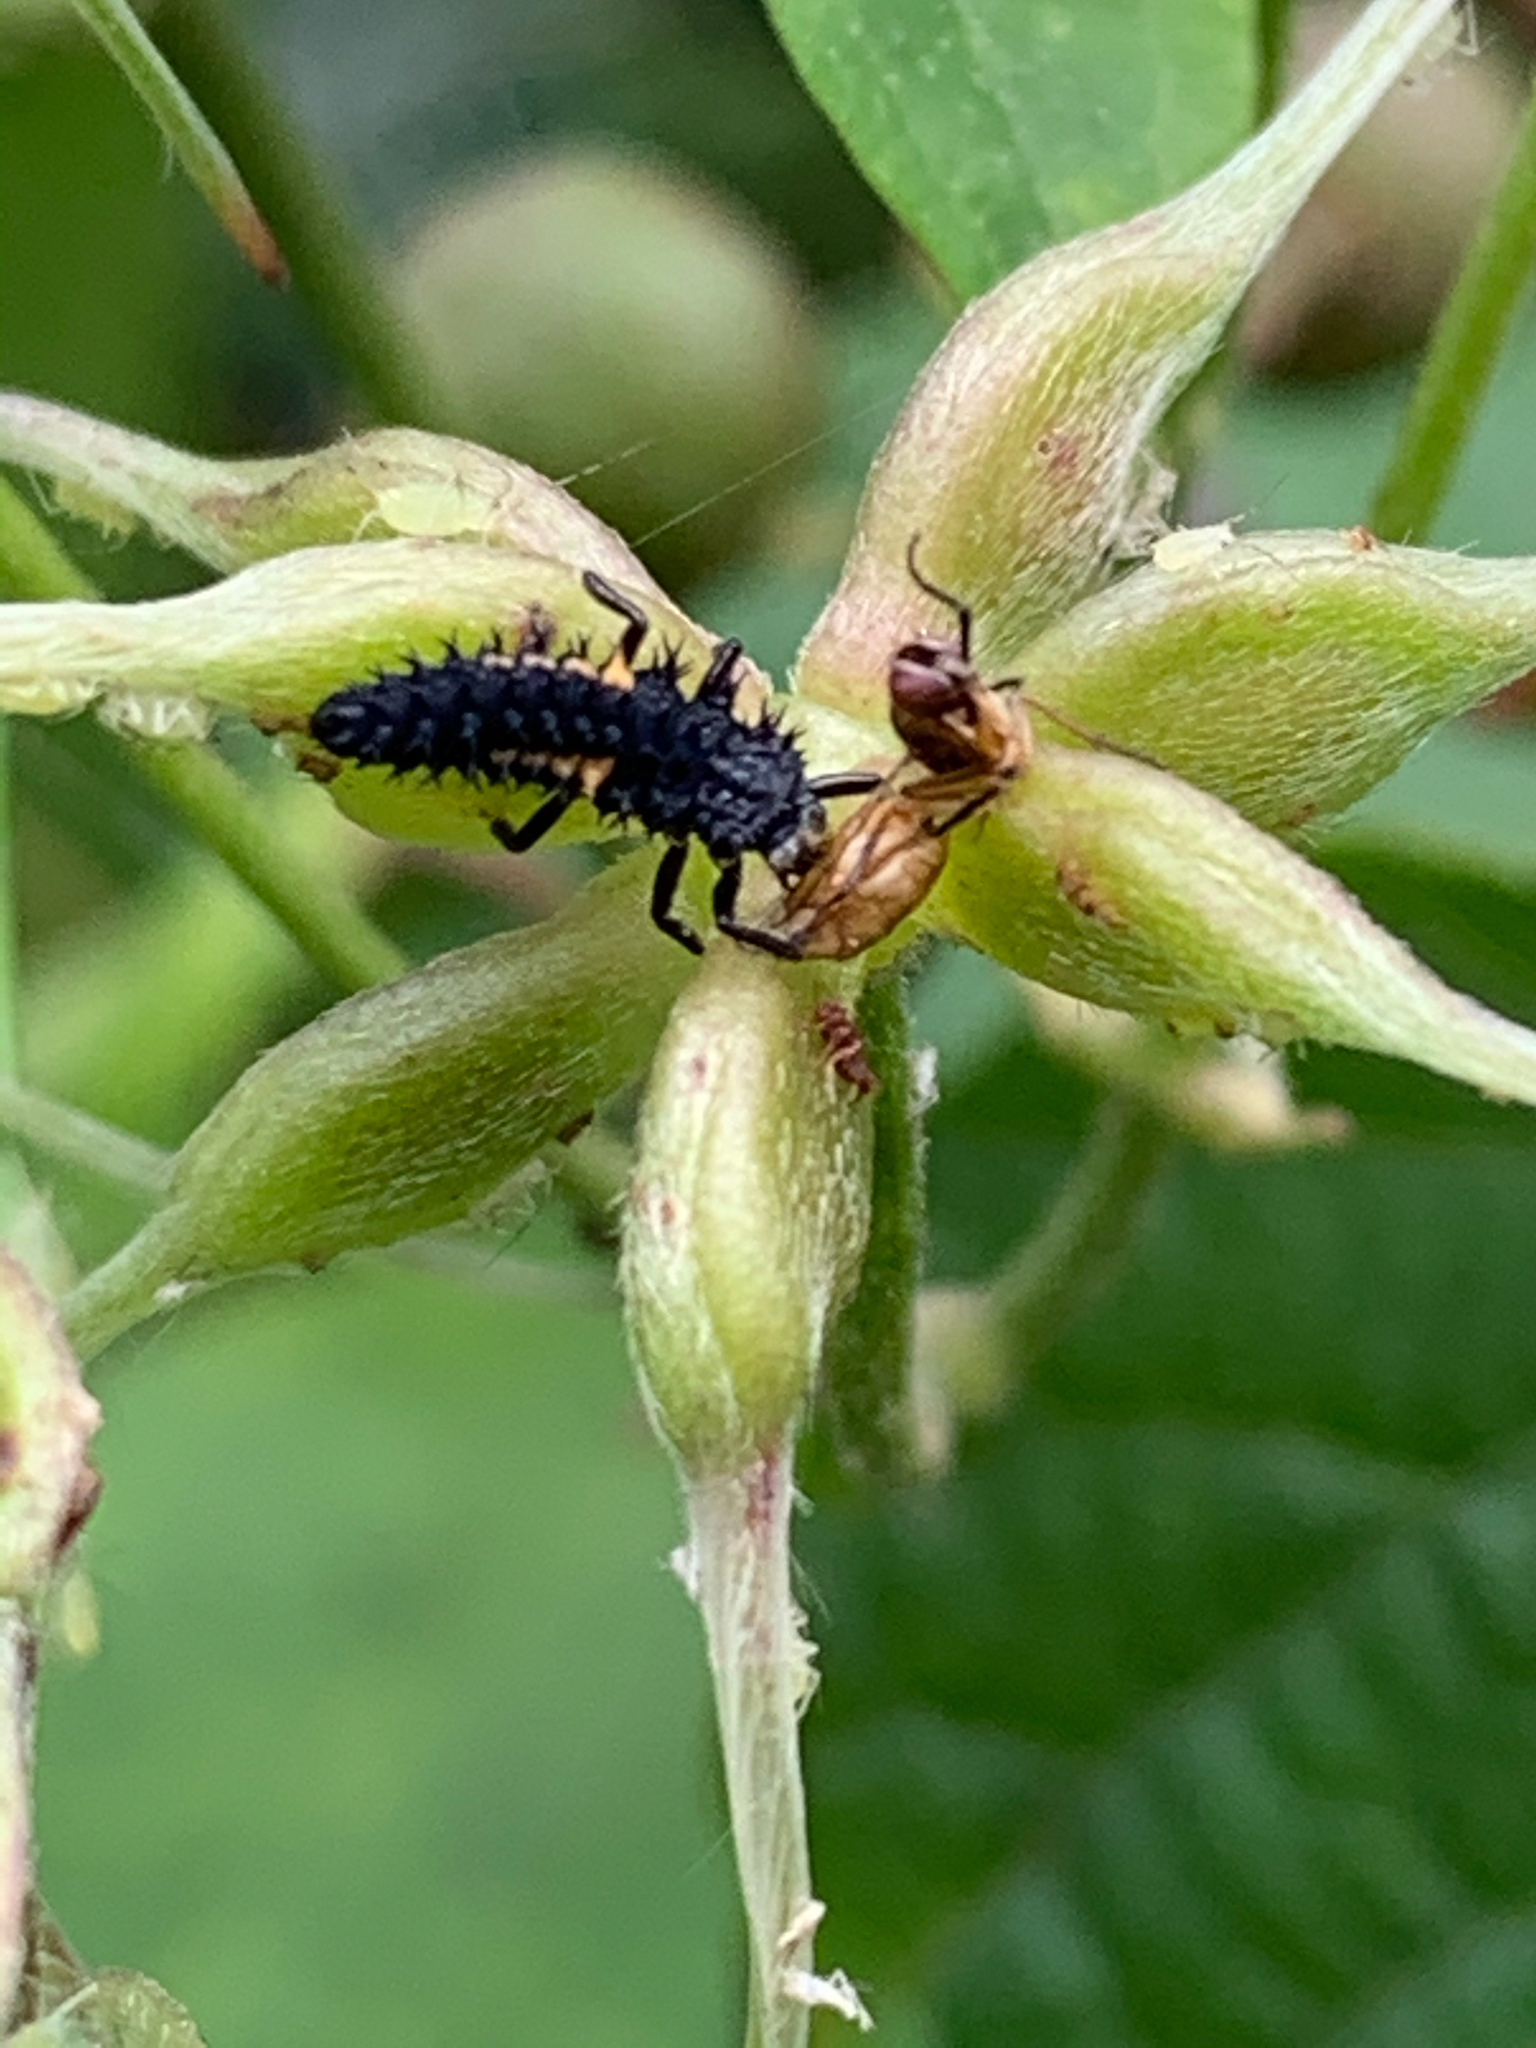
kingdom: Animalia
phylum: Arthropoda
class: Insecta
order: Coleoptera
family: Coccinellidae
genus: Harmonia
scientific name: Harmonia axyridis
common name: Harlequin ladybird
